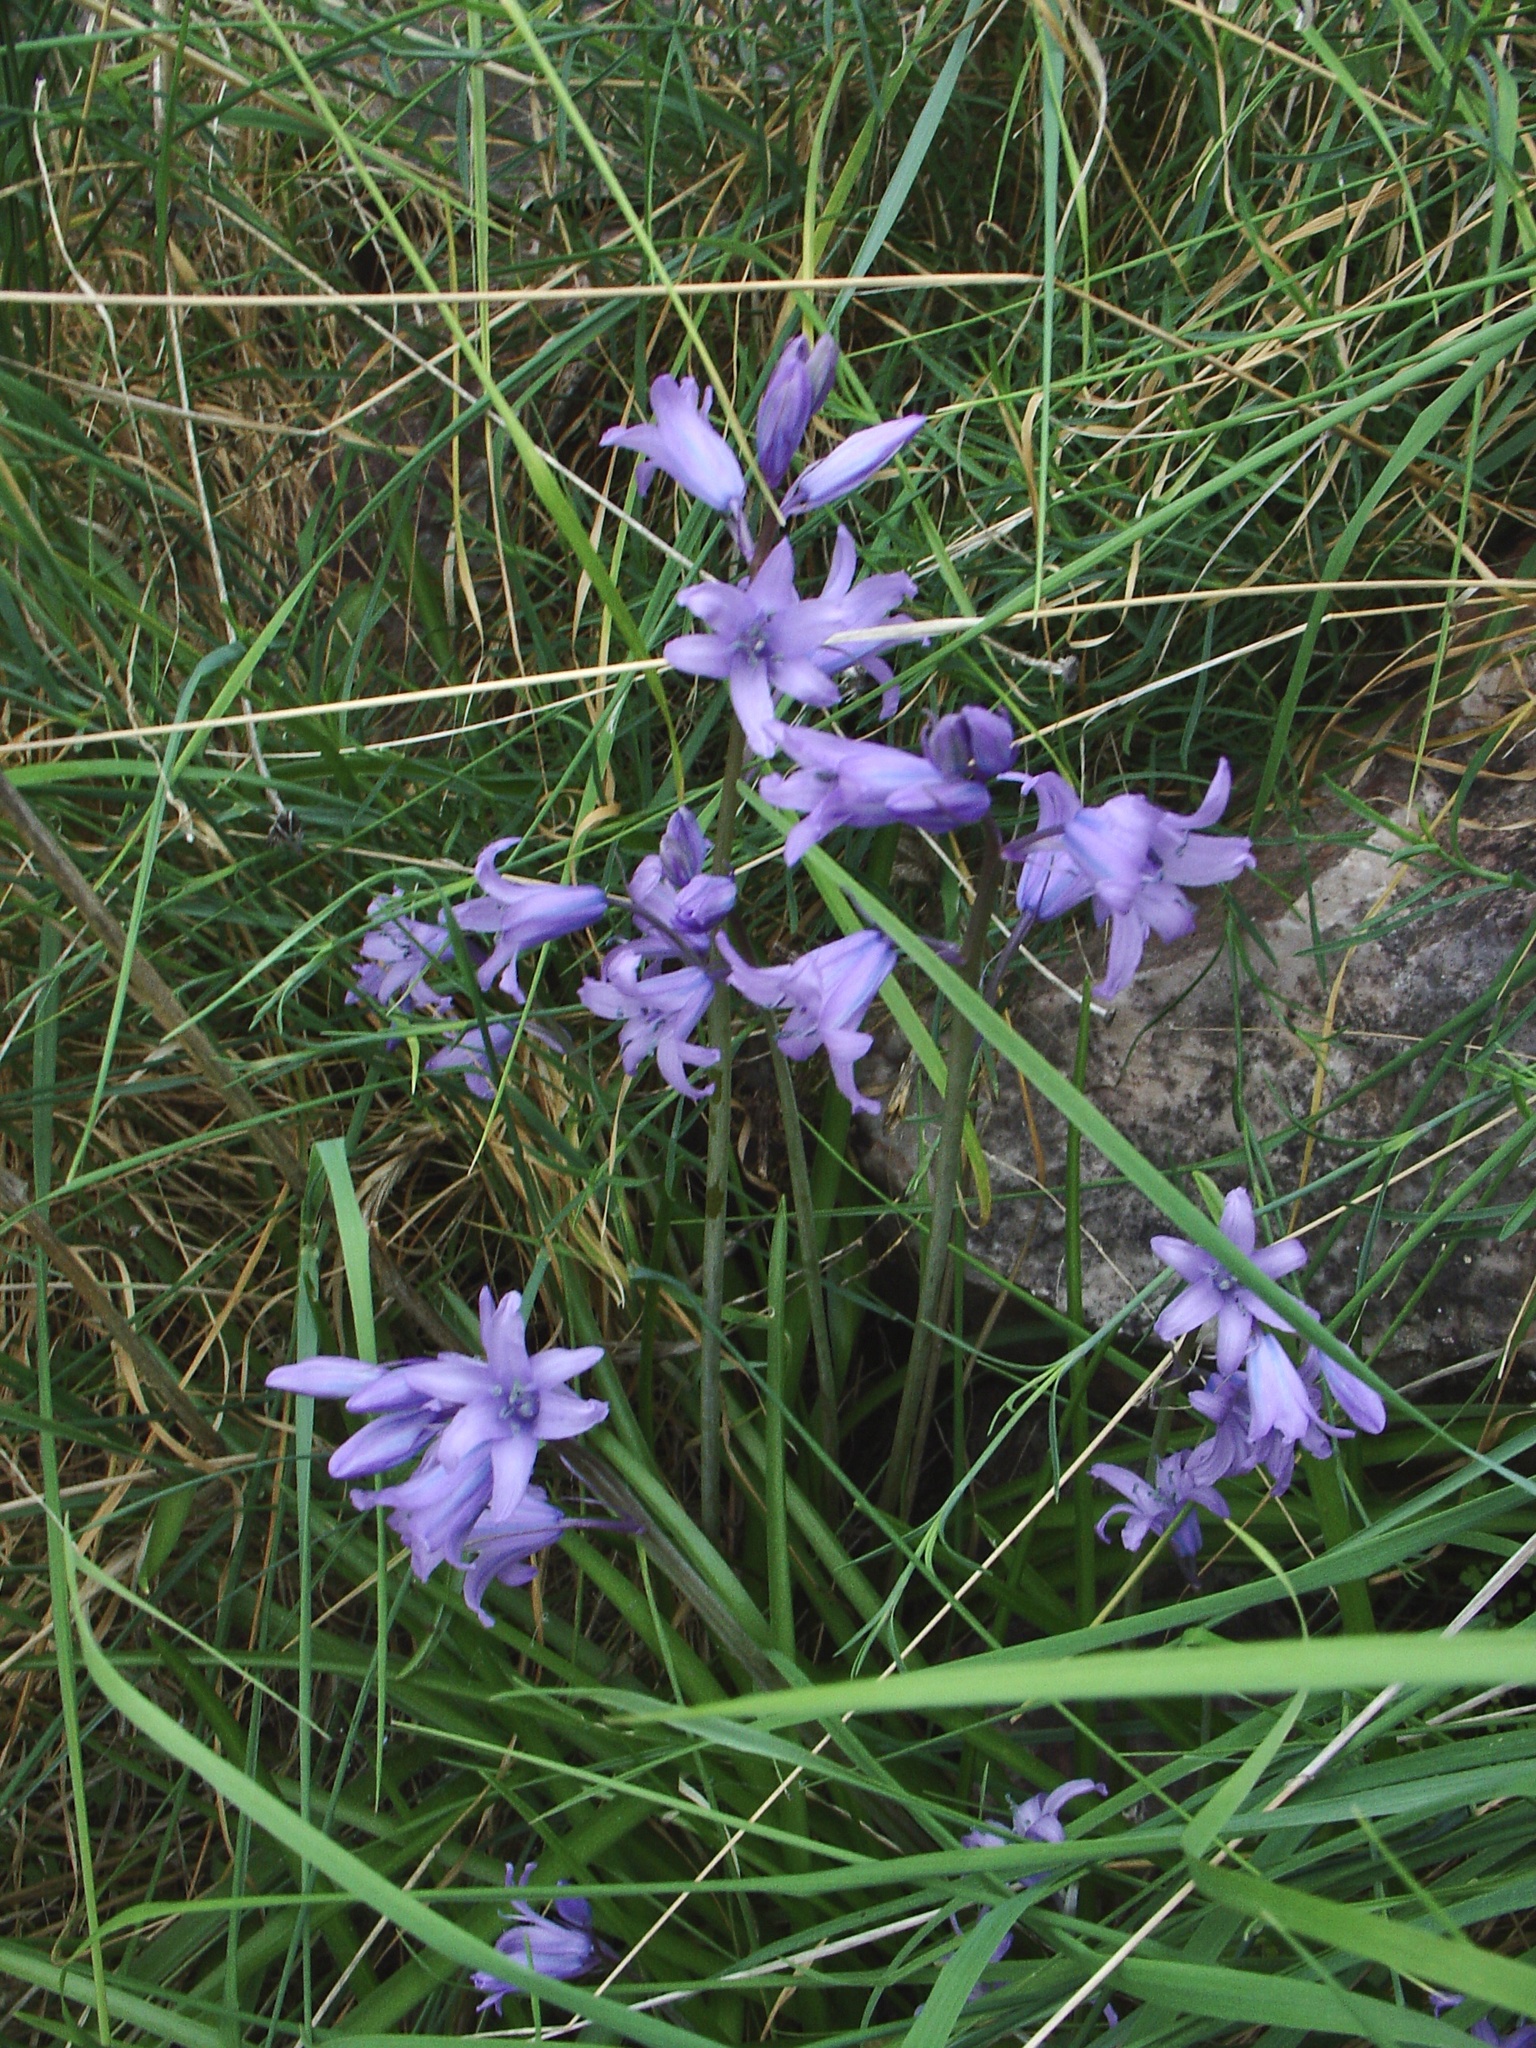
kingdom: Plantae
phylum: Tracheophyta
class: Liliopsida
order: Asparagales
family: Asparagaceae
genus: Hyacinthoides
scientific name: Hyacinthoides hispanica
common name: Spanish bluebell
